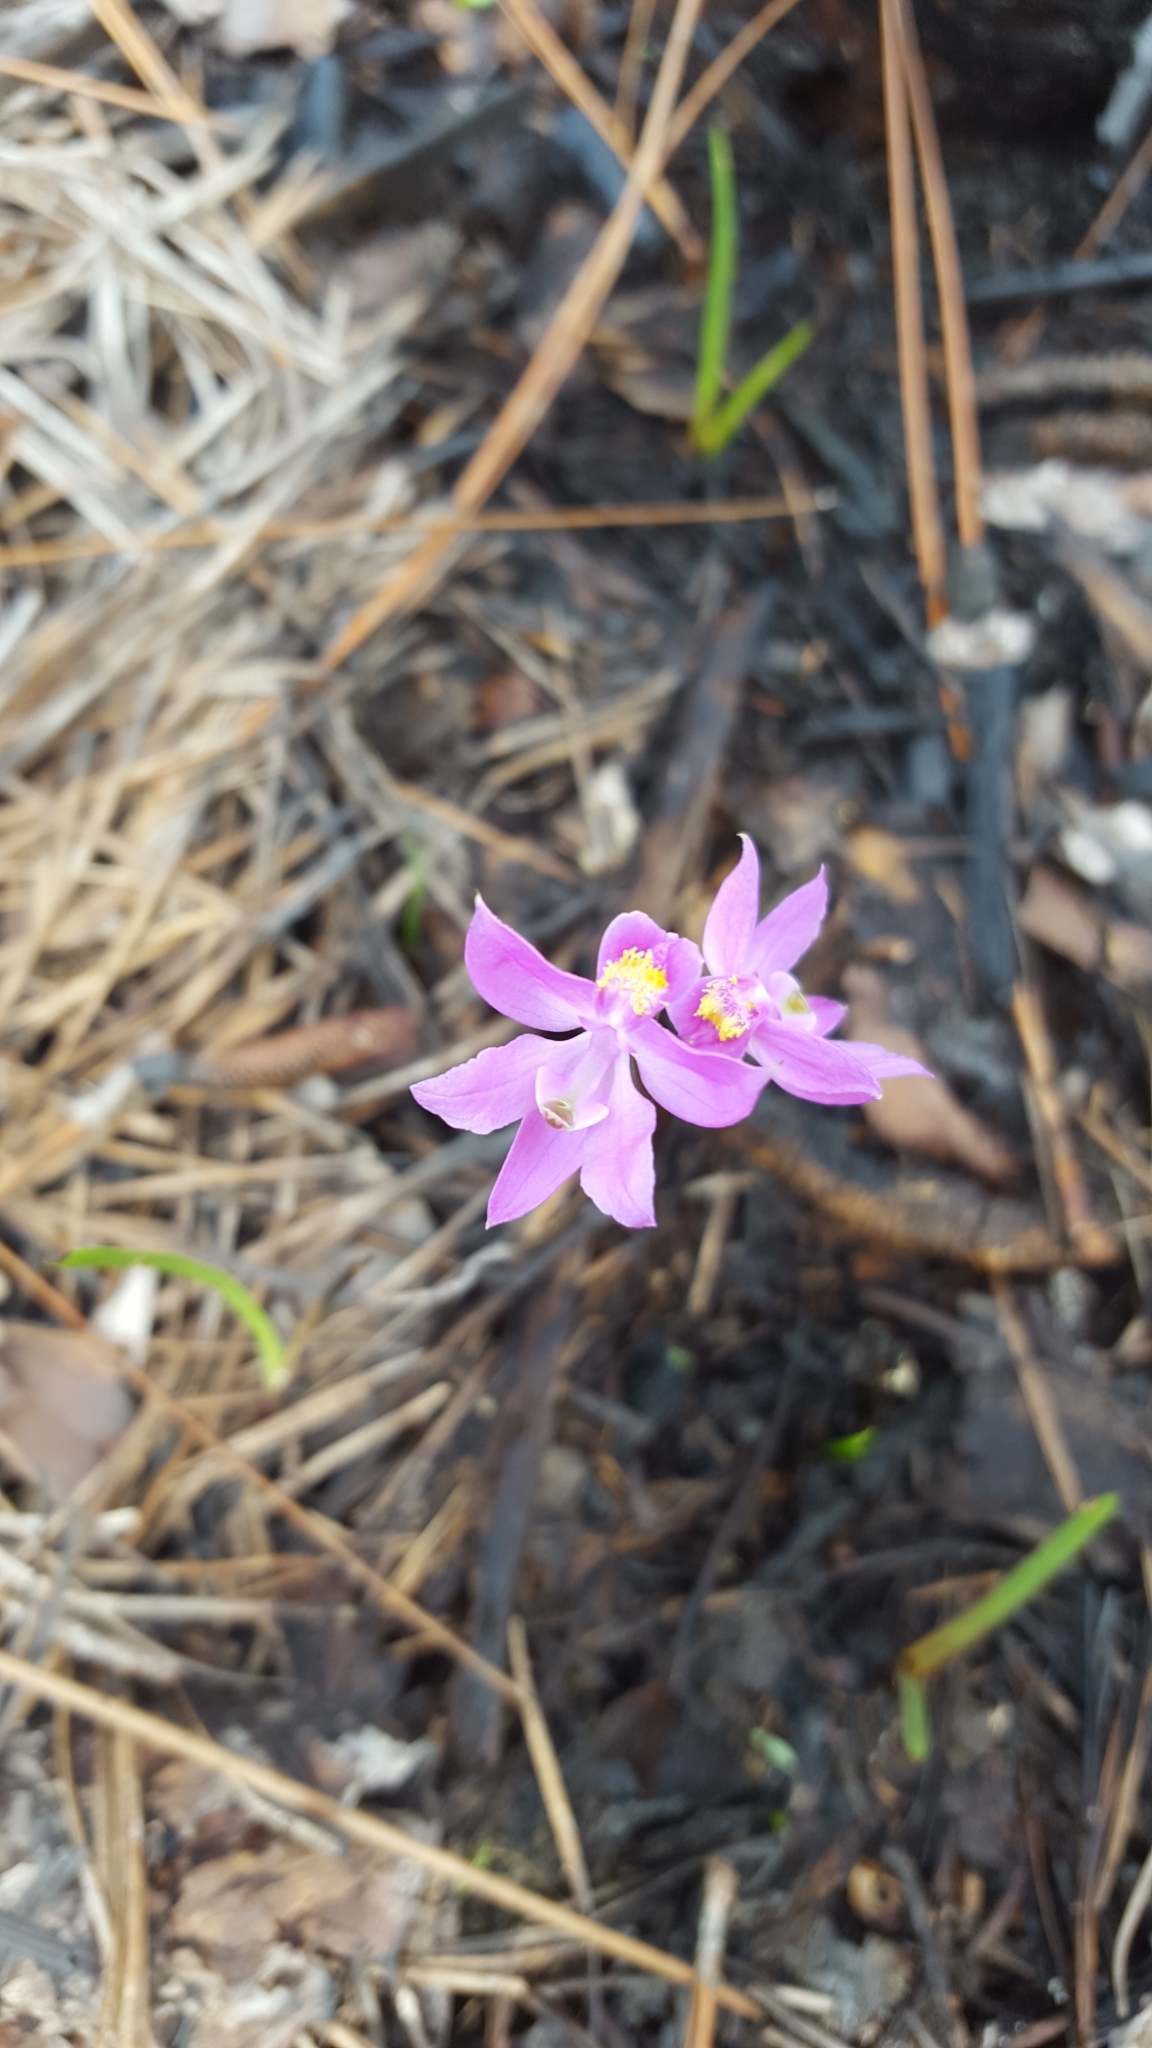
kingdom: Plantae
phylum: Tracheophyta
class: Liliopsida
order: Asparagales
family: Orchidaceae
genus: Calopogon
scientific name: Calopogon multiflorus
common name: Many-flowered grass-pink orchid
